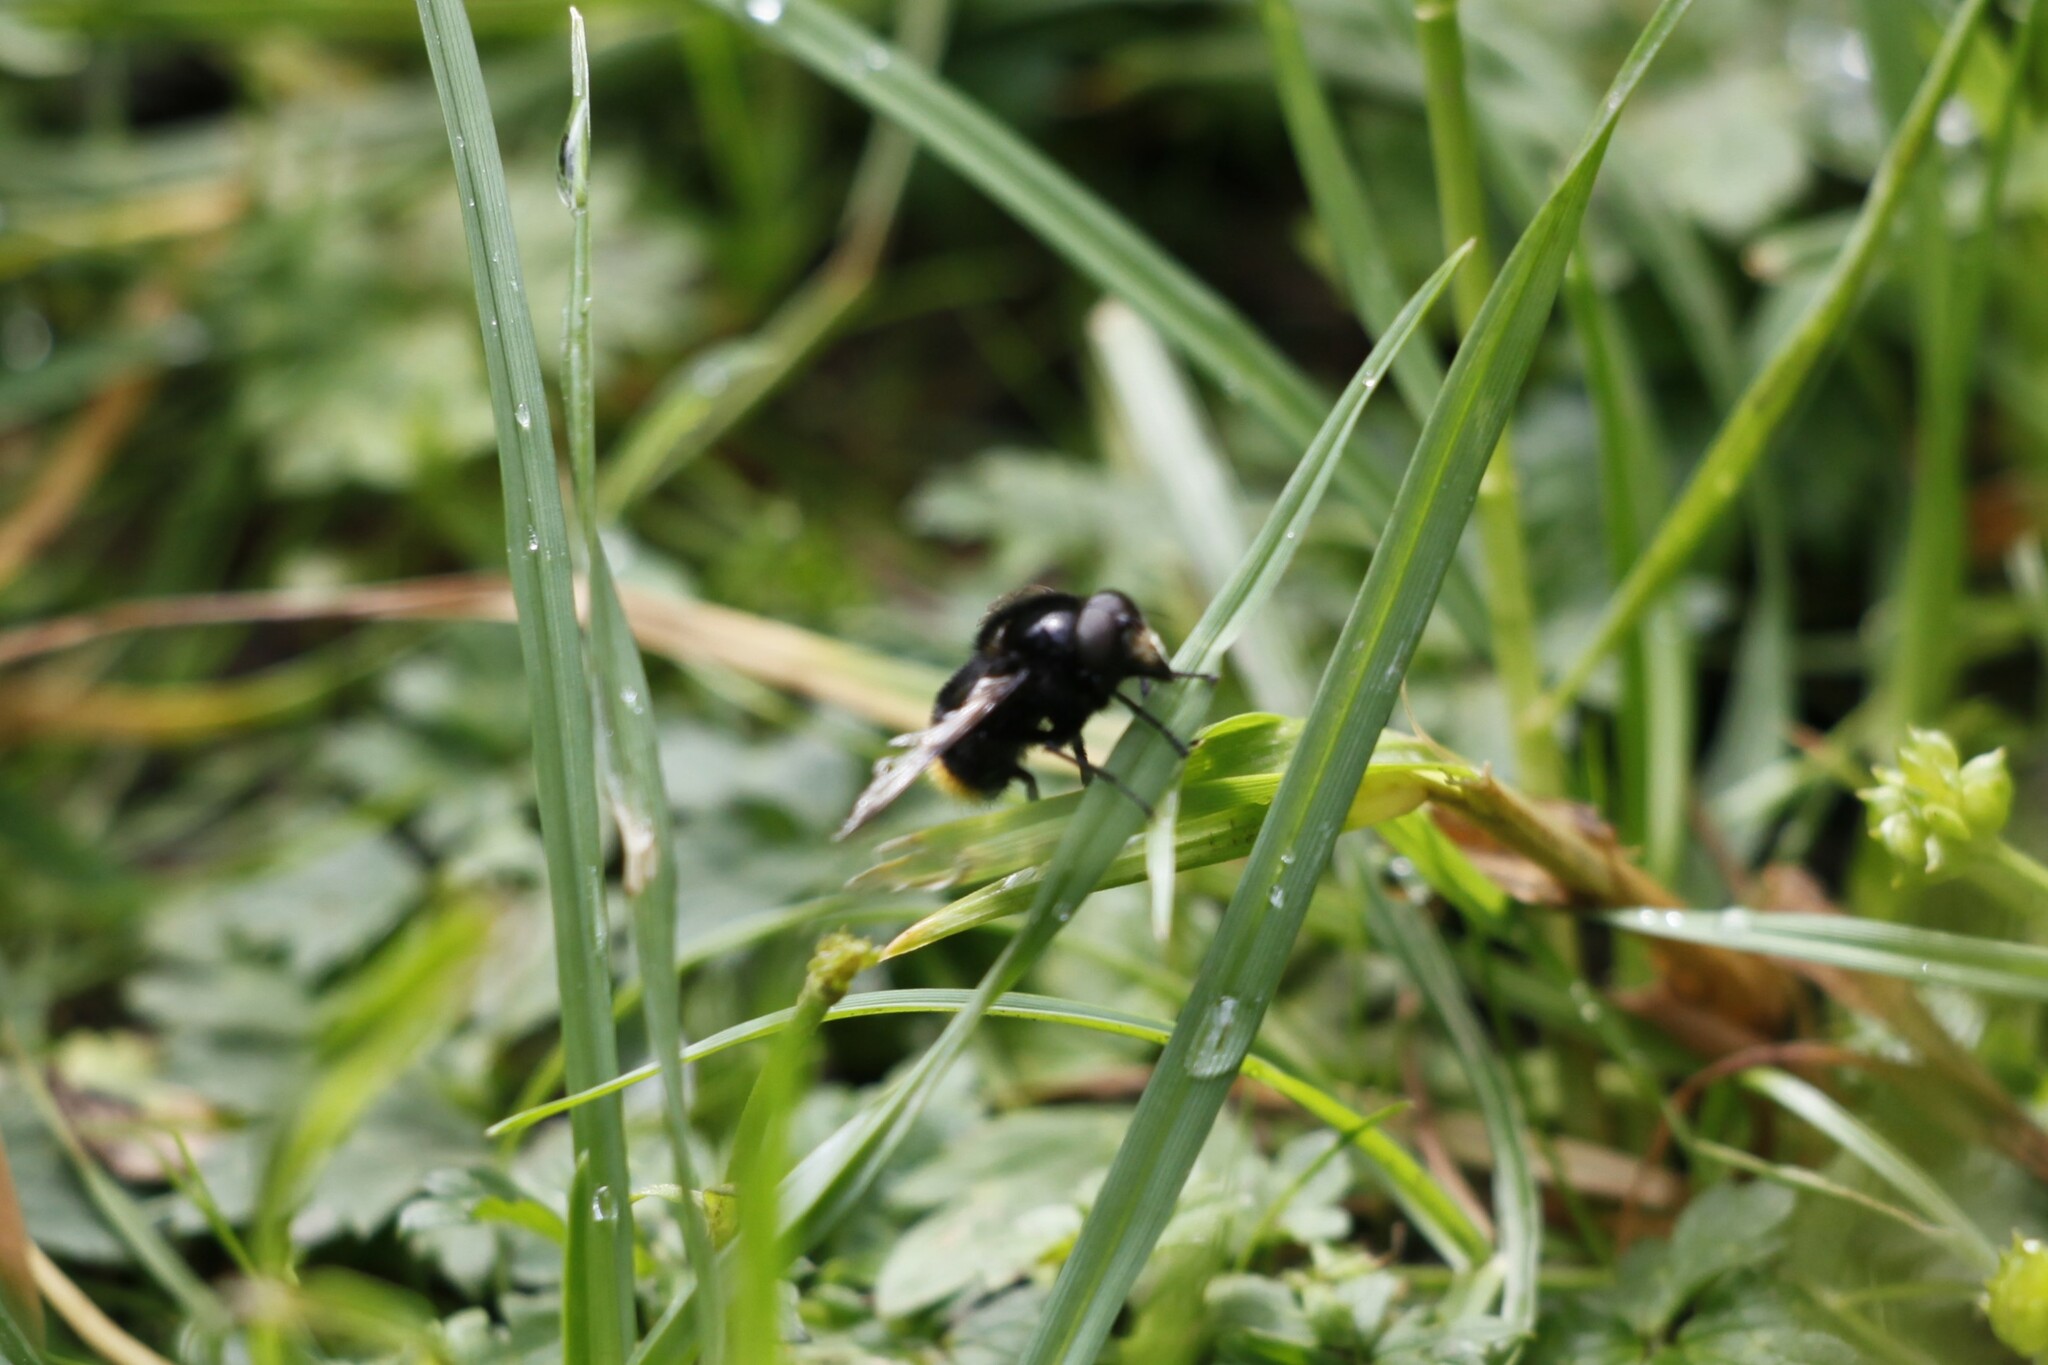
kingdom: Animalia
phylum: Arthropoda
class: Insecta
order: Diptera
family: Syrphidae
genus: Volucella
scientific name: Volucella bombylans
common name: Bumble bee hover fly
